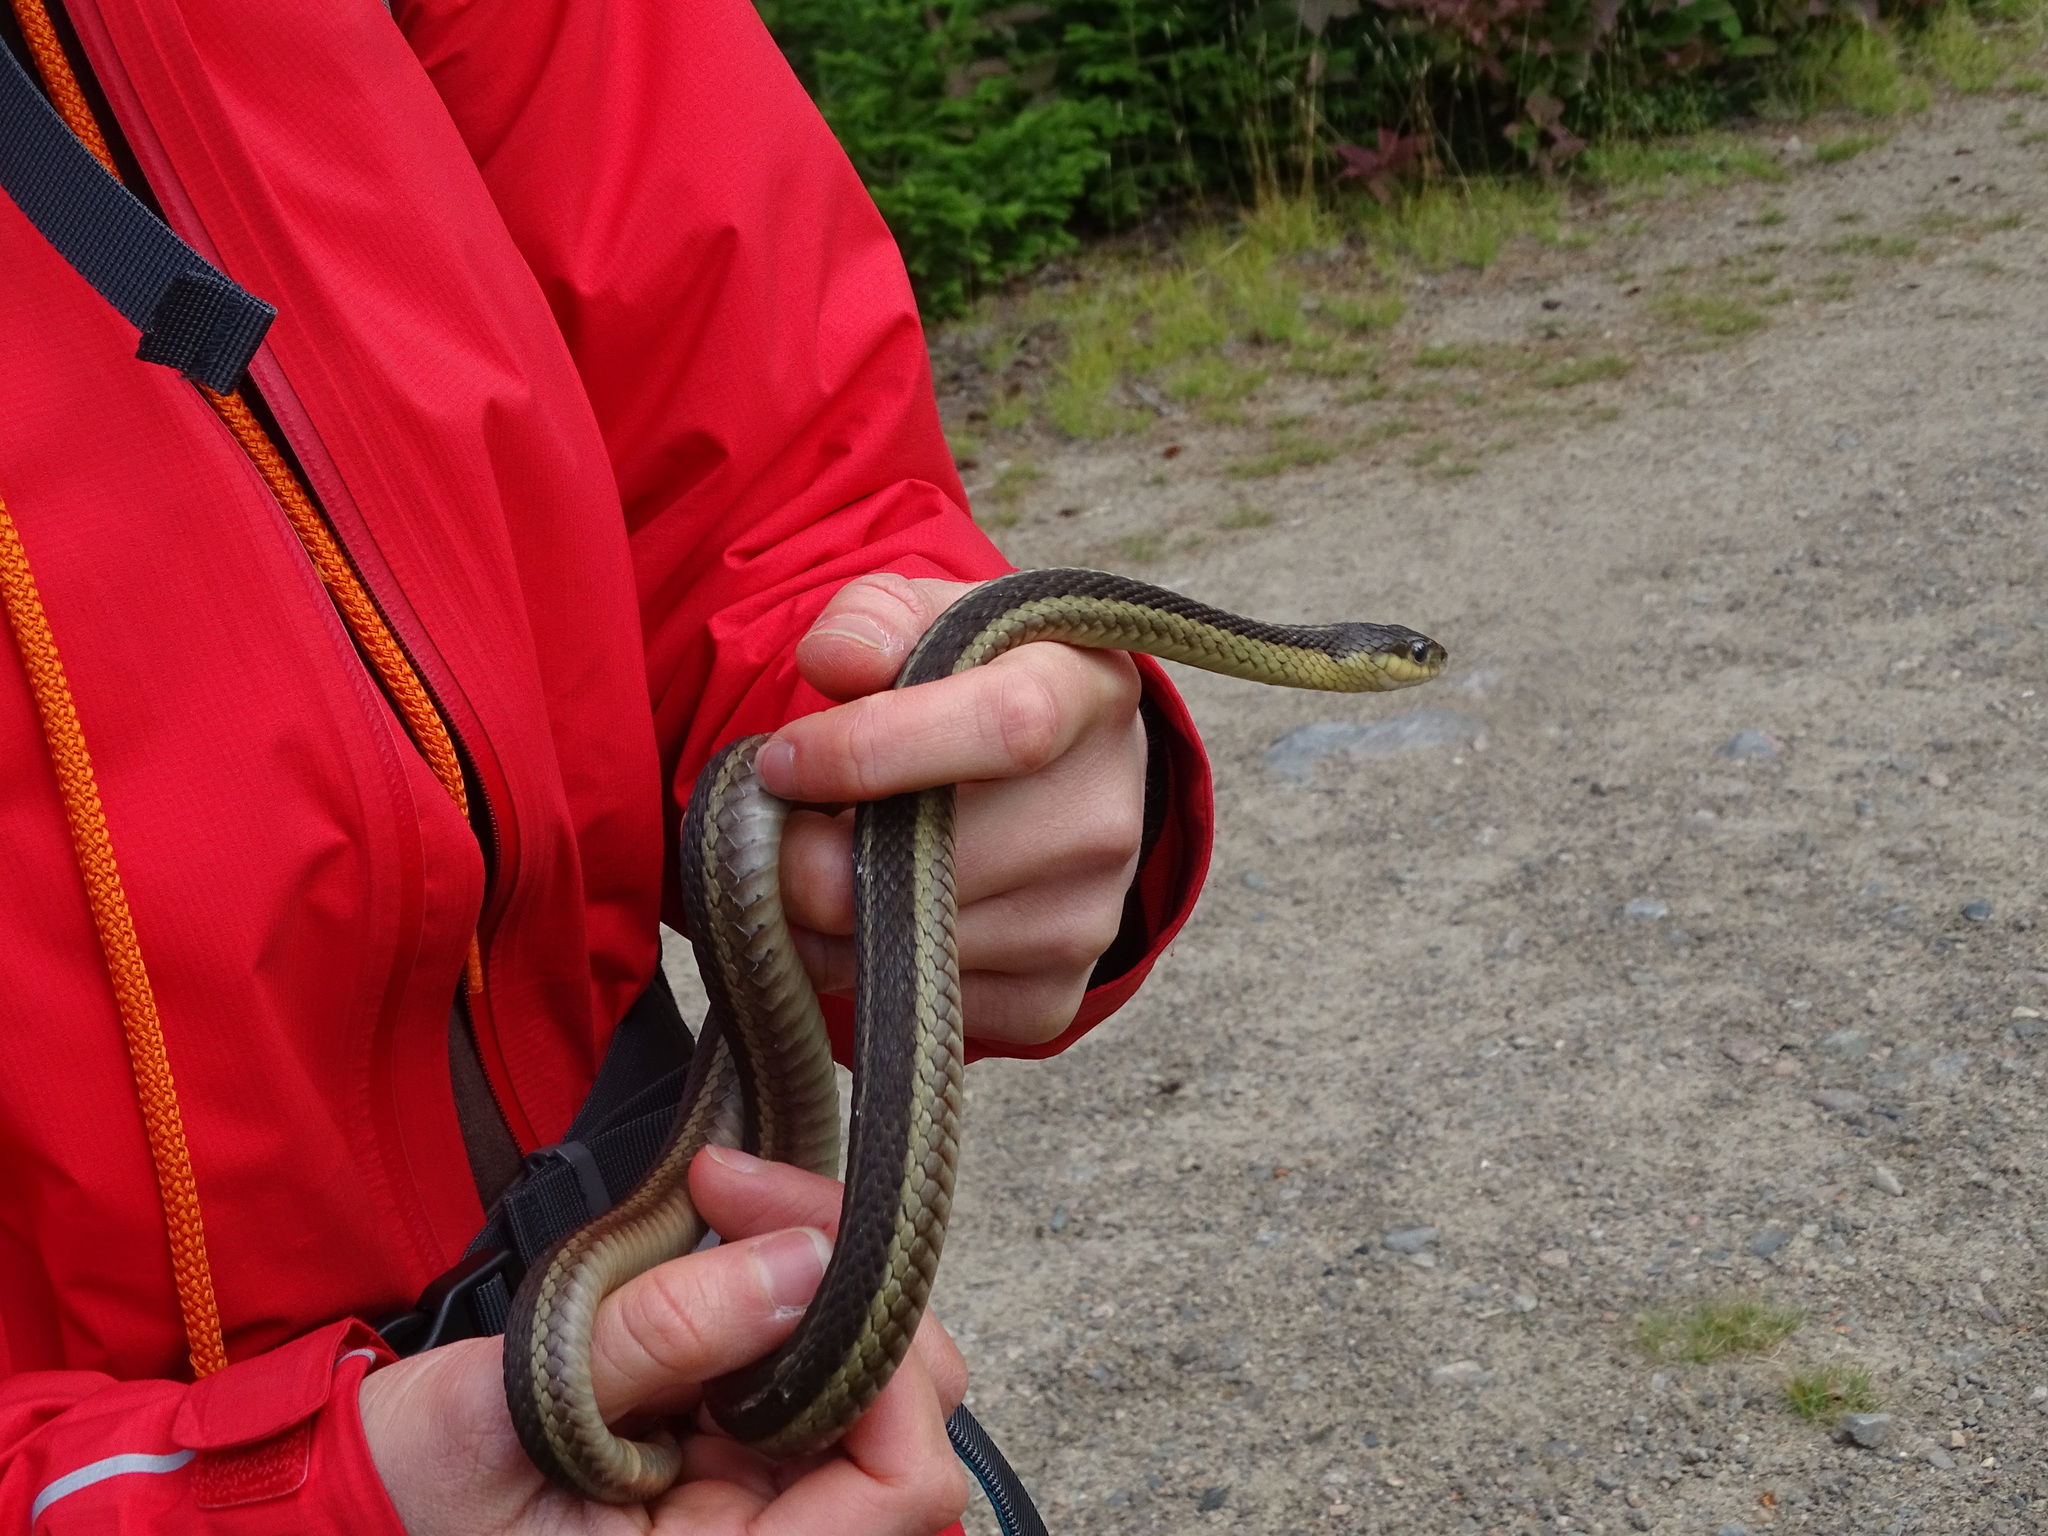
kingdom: Animalia
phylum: Chordata
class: Squamata
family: Colubridae
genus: Thamnophis
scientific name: Thamnophis sirtalis
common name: Common garter snake
